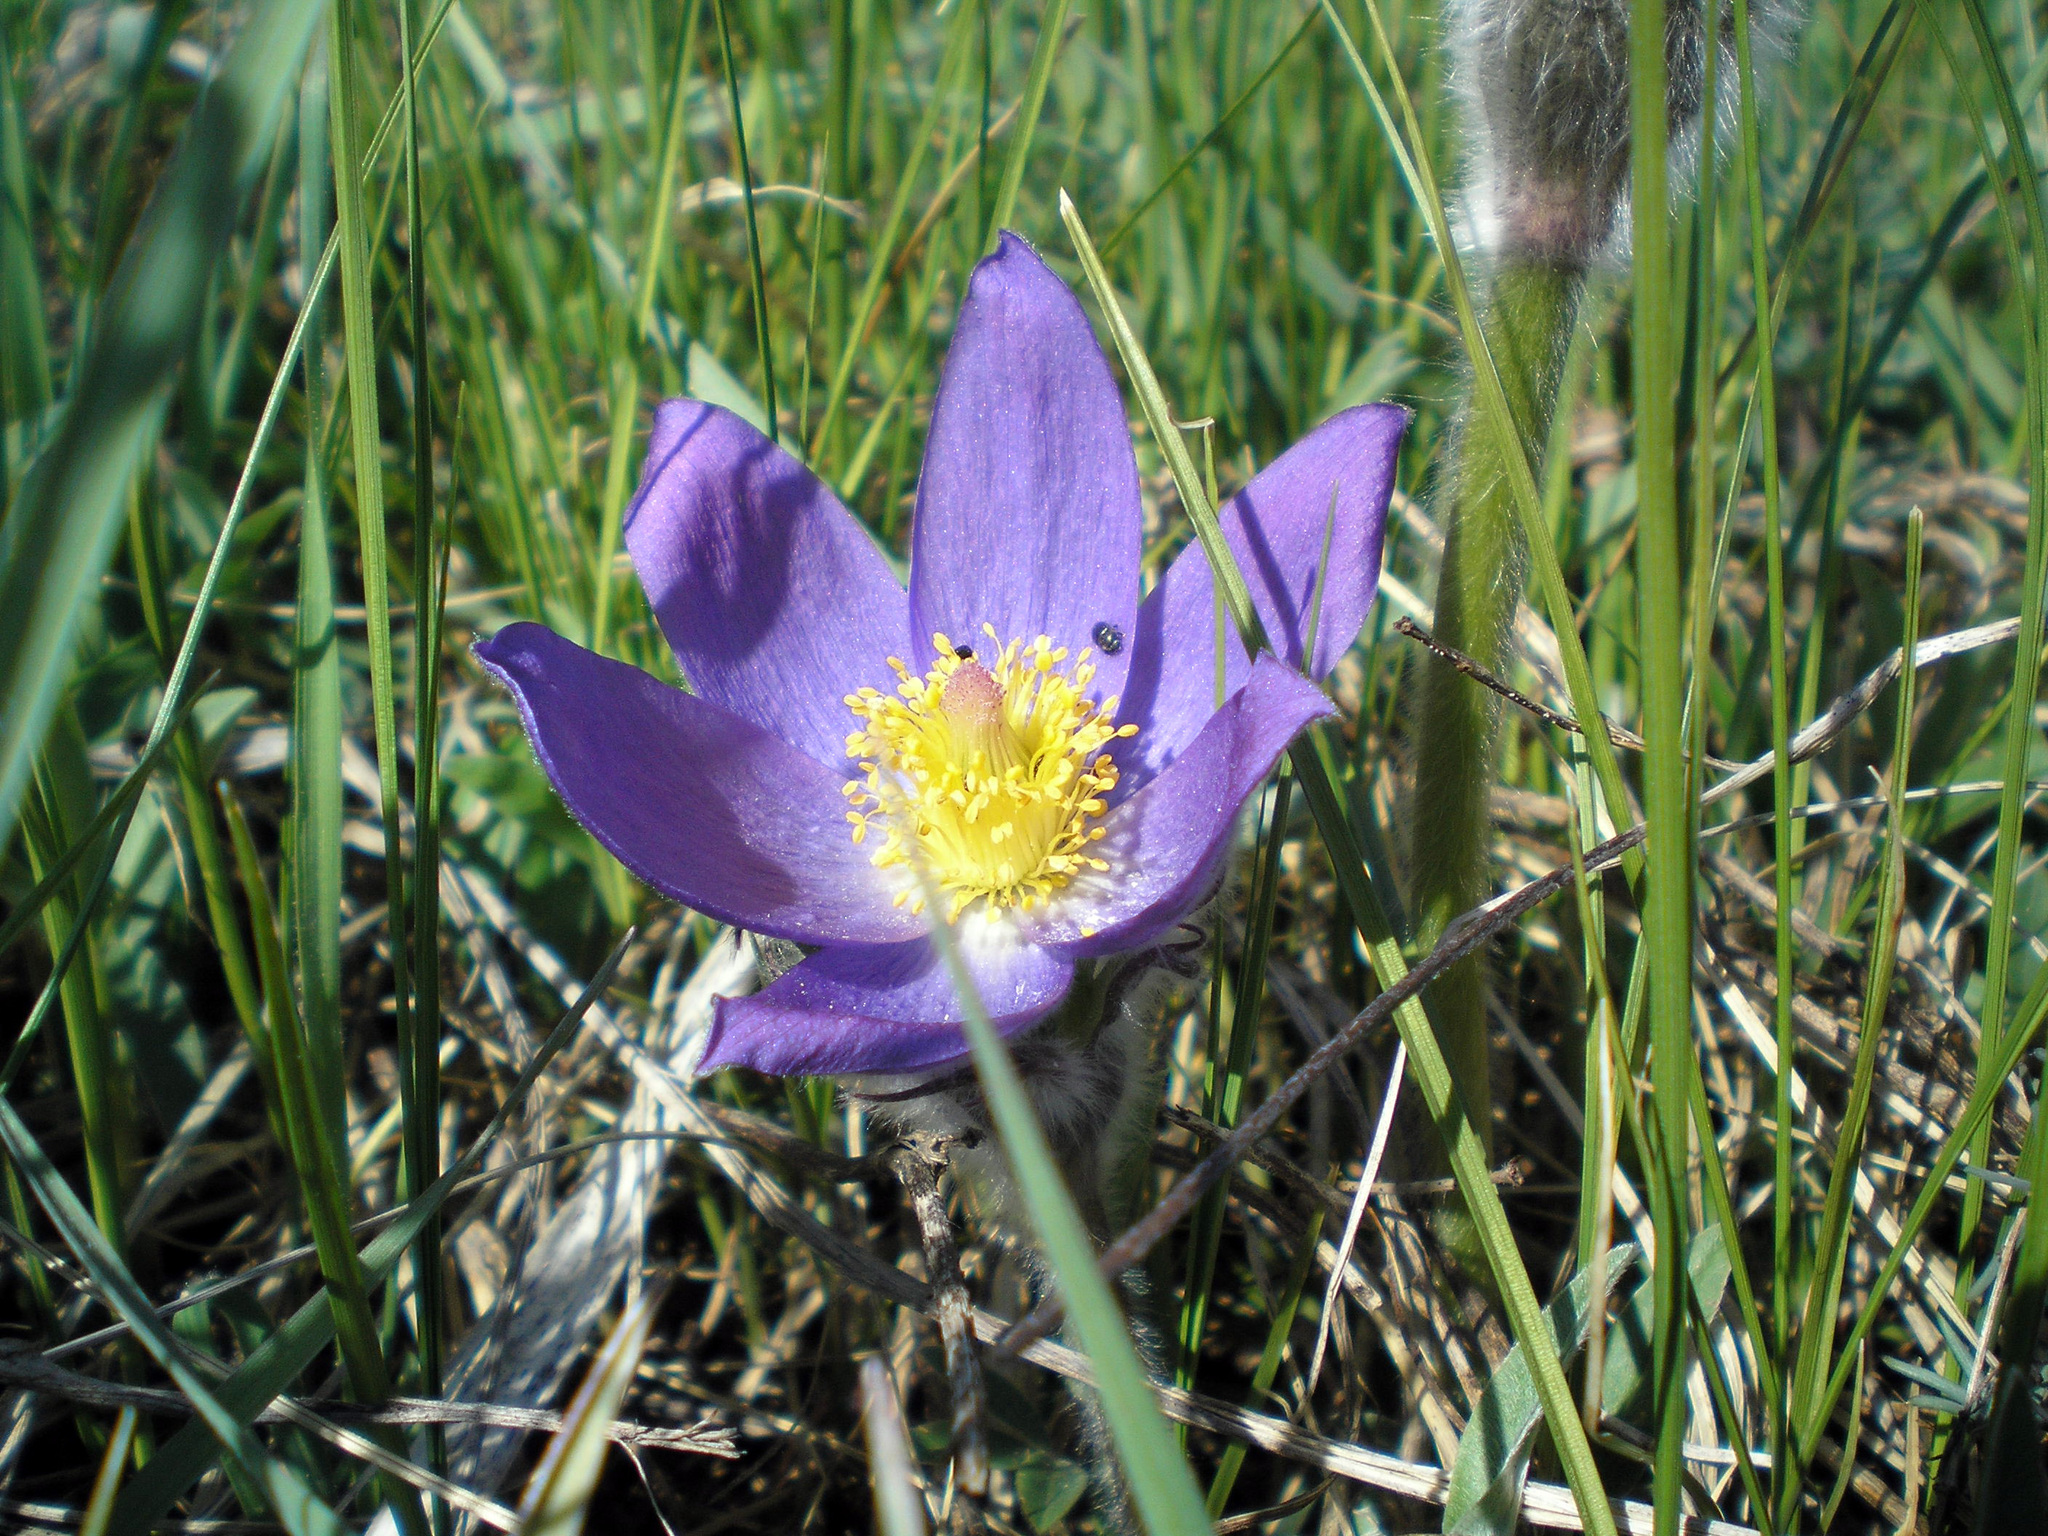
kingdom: Plantae
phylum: Tracheophyta
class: Magnoliopsida
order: Ranunculales
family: Ranunculaceae
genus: Pulsatilla
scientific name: Pulsatilla patens
